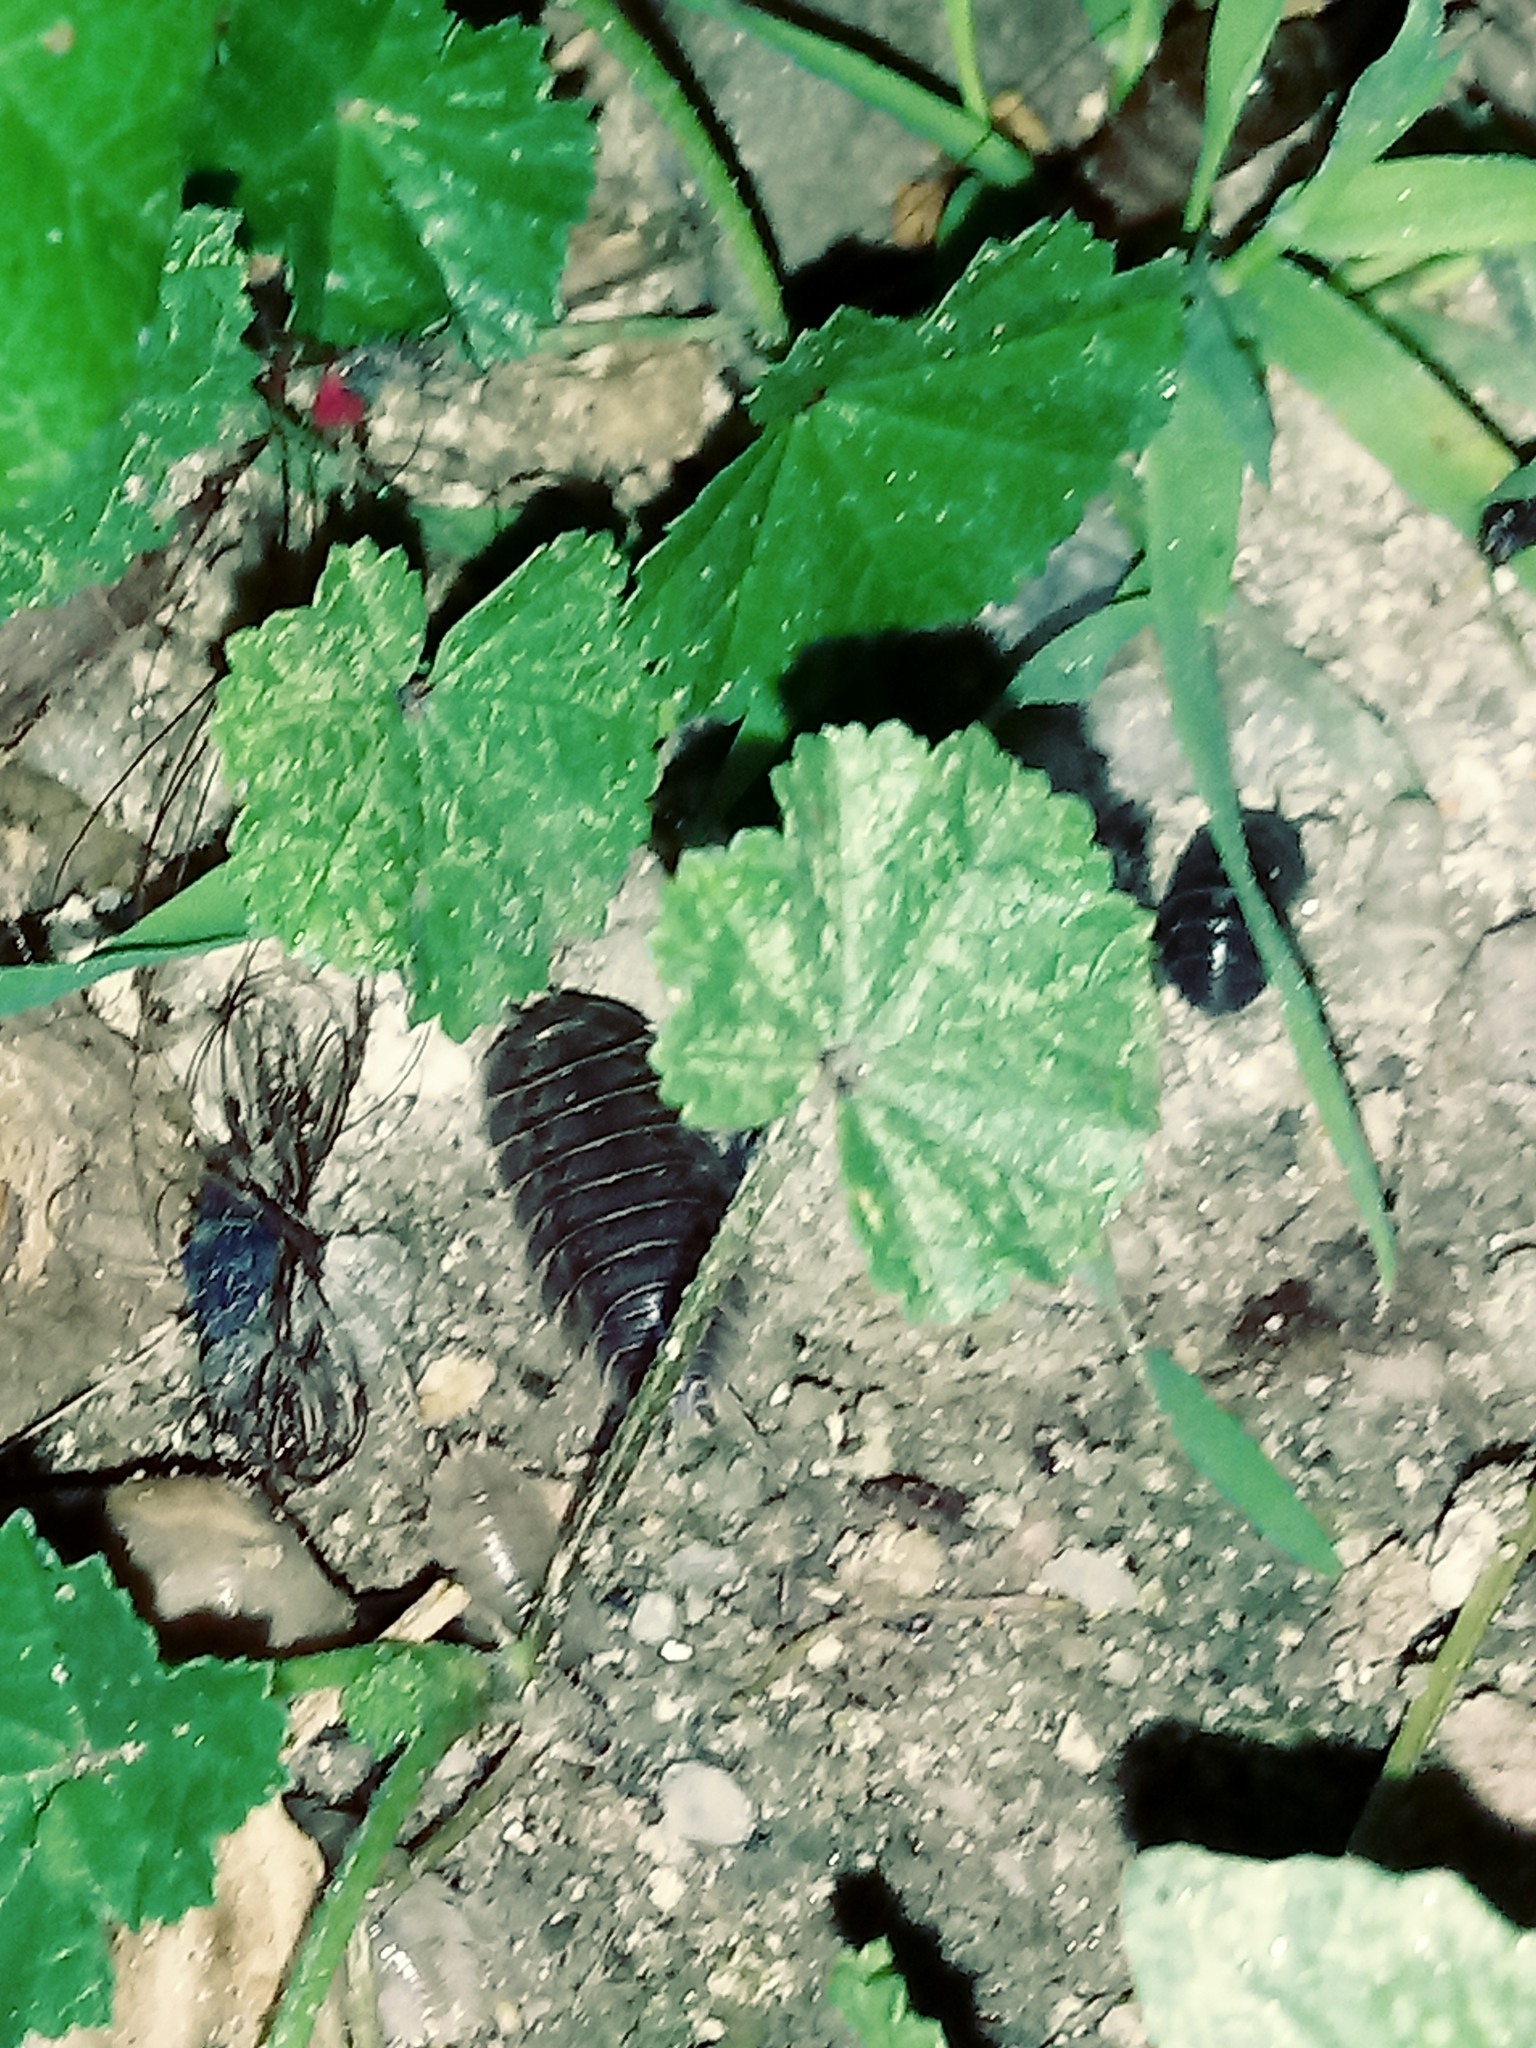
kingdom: Animalia
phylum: Arthropoda
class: Malacostraca
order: Isopoda
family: Porcellionidae
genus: Porcellio
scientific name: Porcellio laevis
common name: Swift woodlouse
